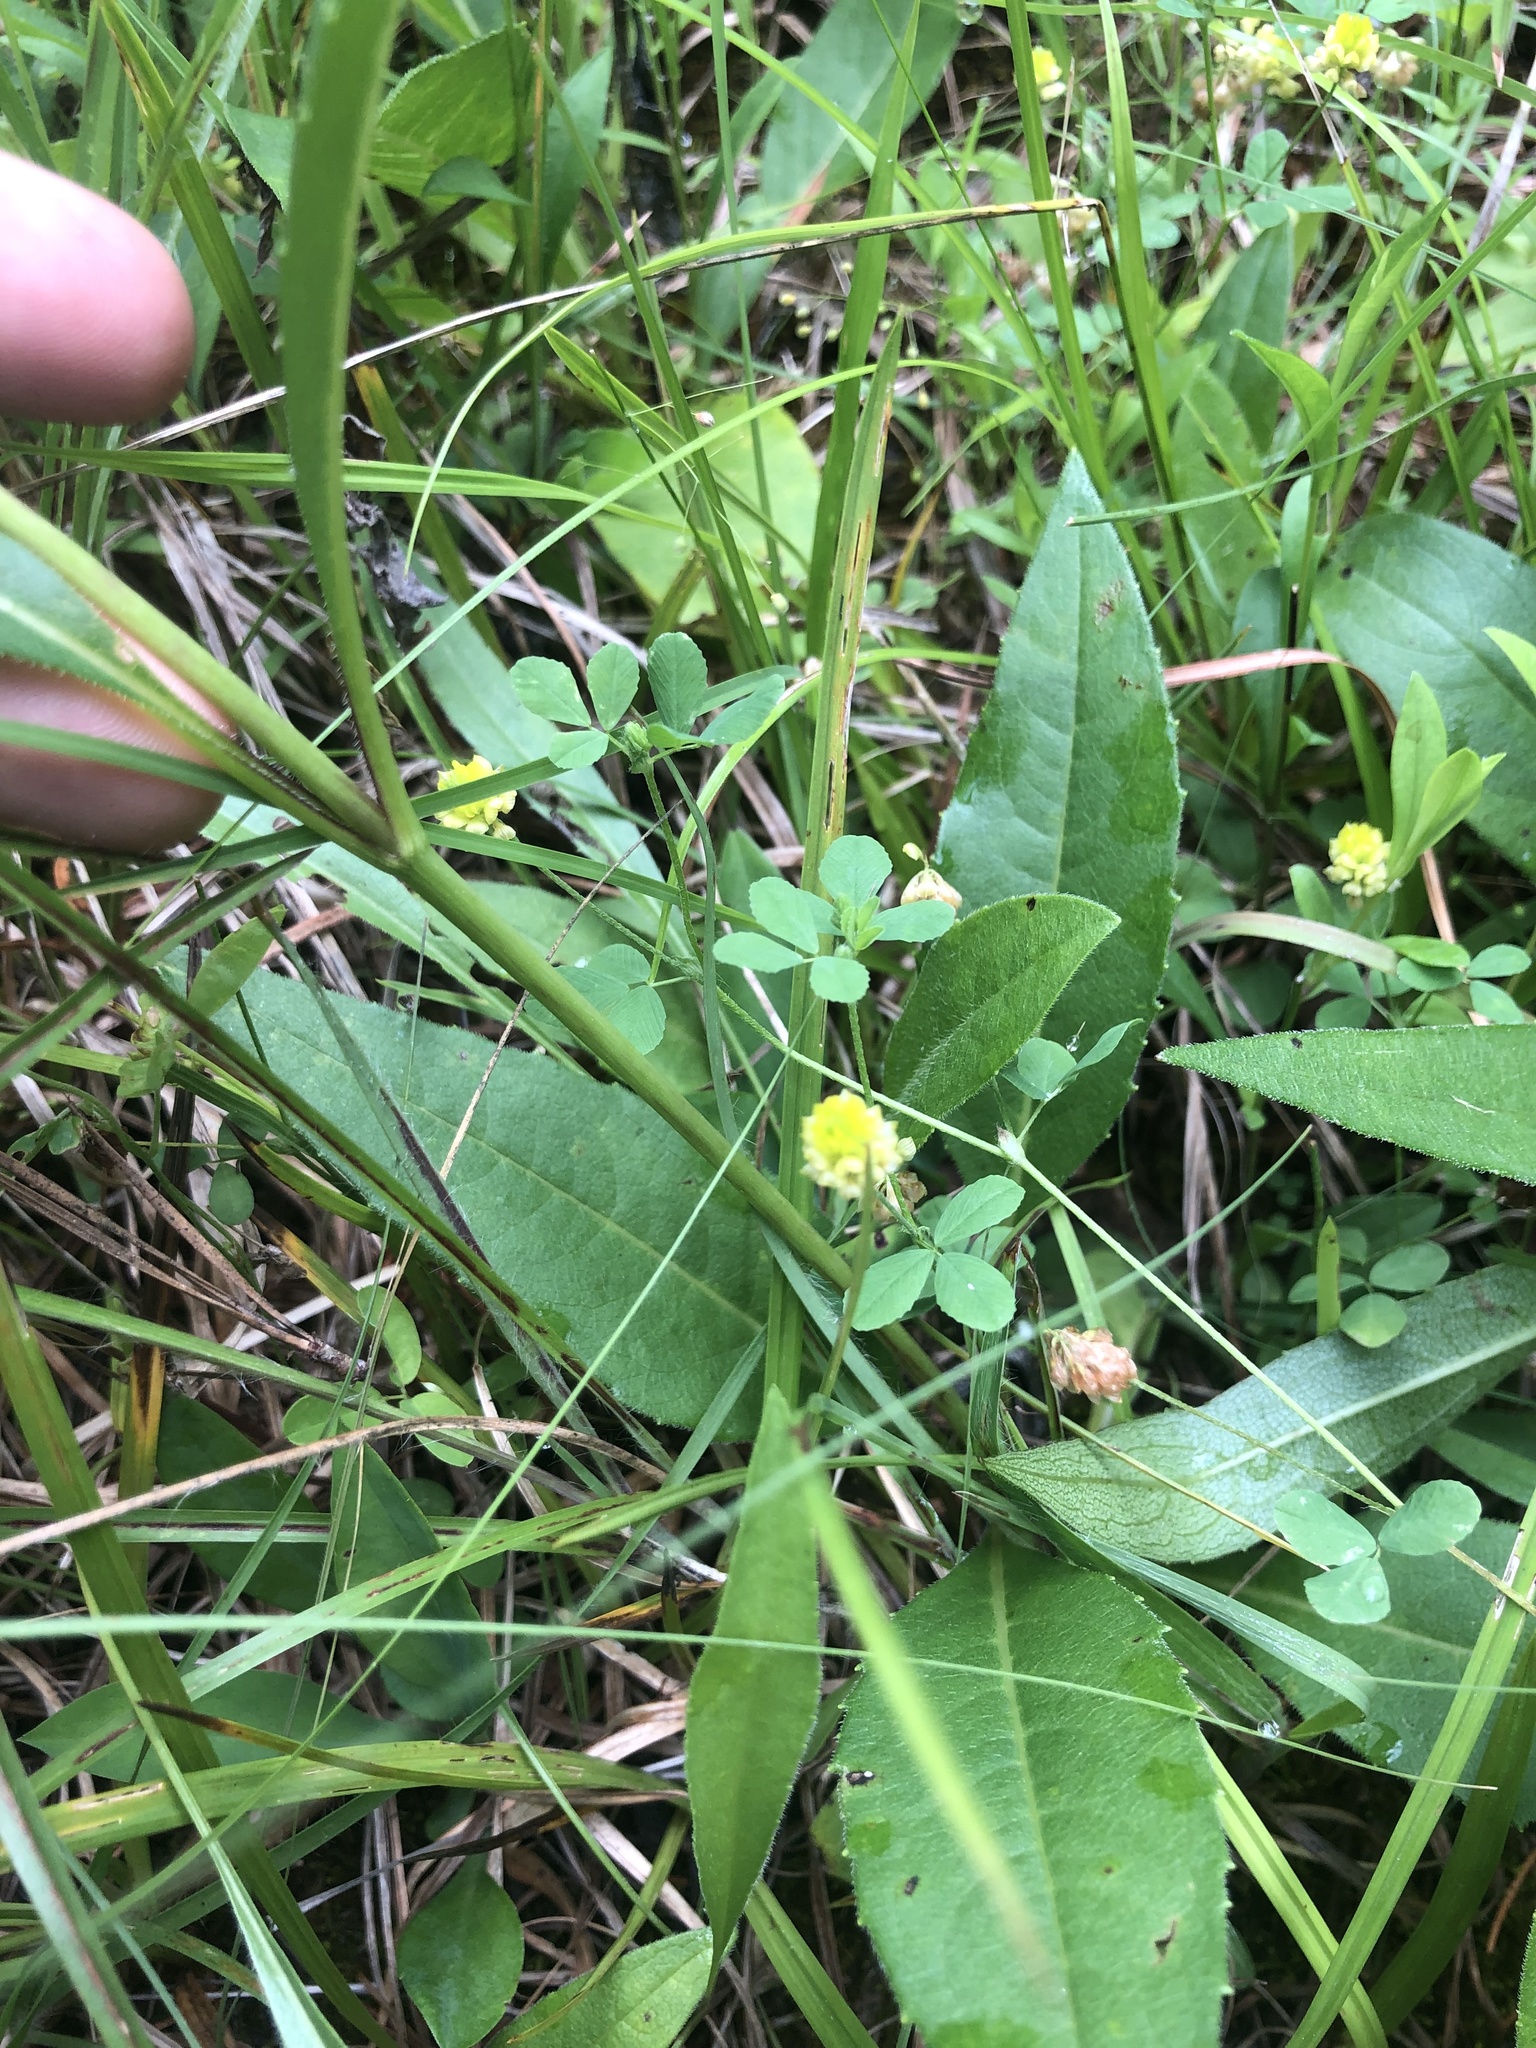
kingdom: Plantae
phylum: Tracheophyta
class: Magnoliopsida
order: Asterales
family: Asteraceae
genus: Silphium
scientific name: Silphium confertifolium
